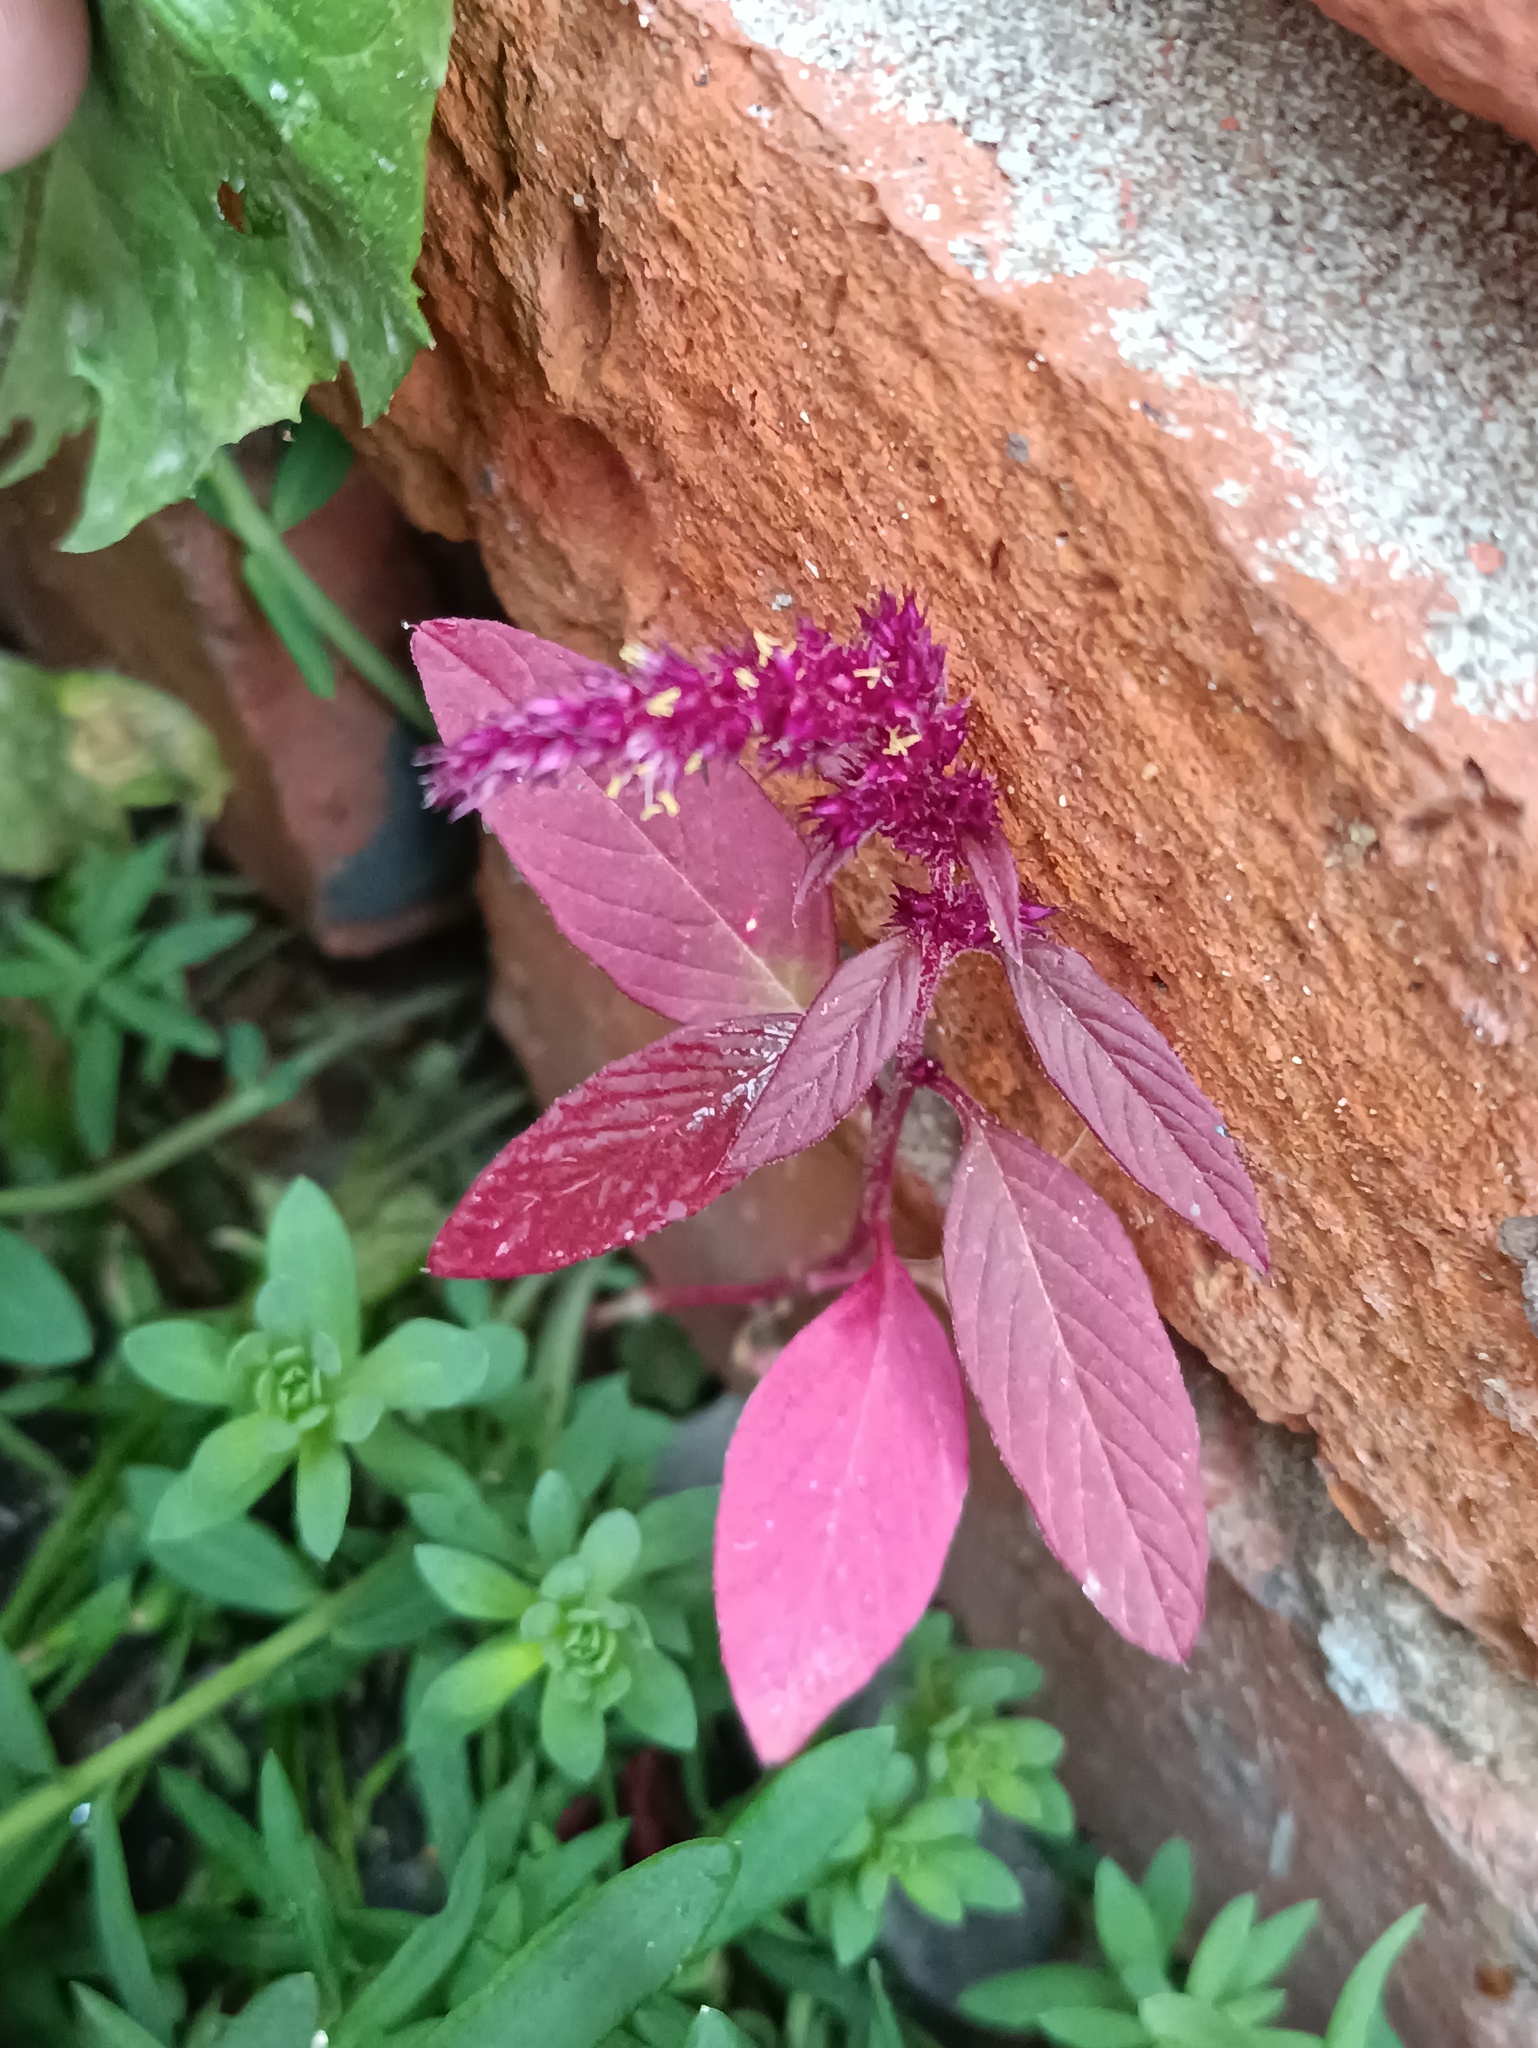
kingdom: Plantae
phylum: Tracheophyta
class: Magnoliopsida
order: Caryophyllales
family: Amaranthaceae
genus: Amaranthus
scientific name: Amaranthus cruentus
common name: Purple amaranth
